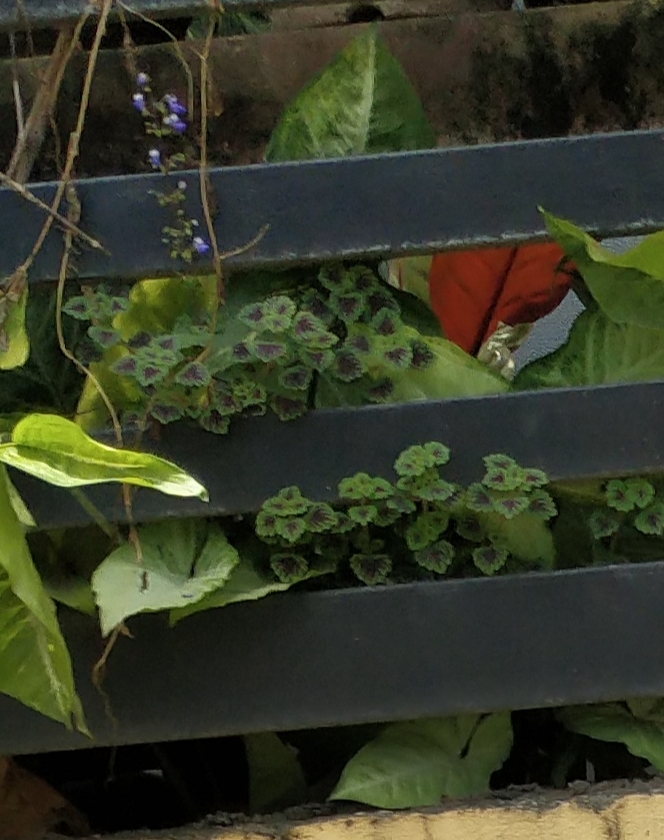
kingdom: Plantae
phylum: Tracheophyta
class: Magnoliopsida
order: Lamiales
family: Lamiaceae
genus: Coleus
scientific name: Coleus scutellarioides
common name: Coleus
